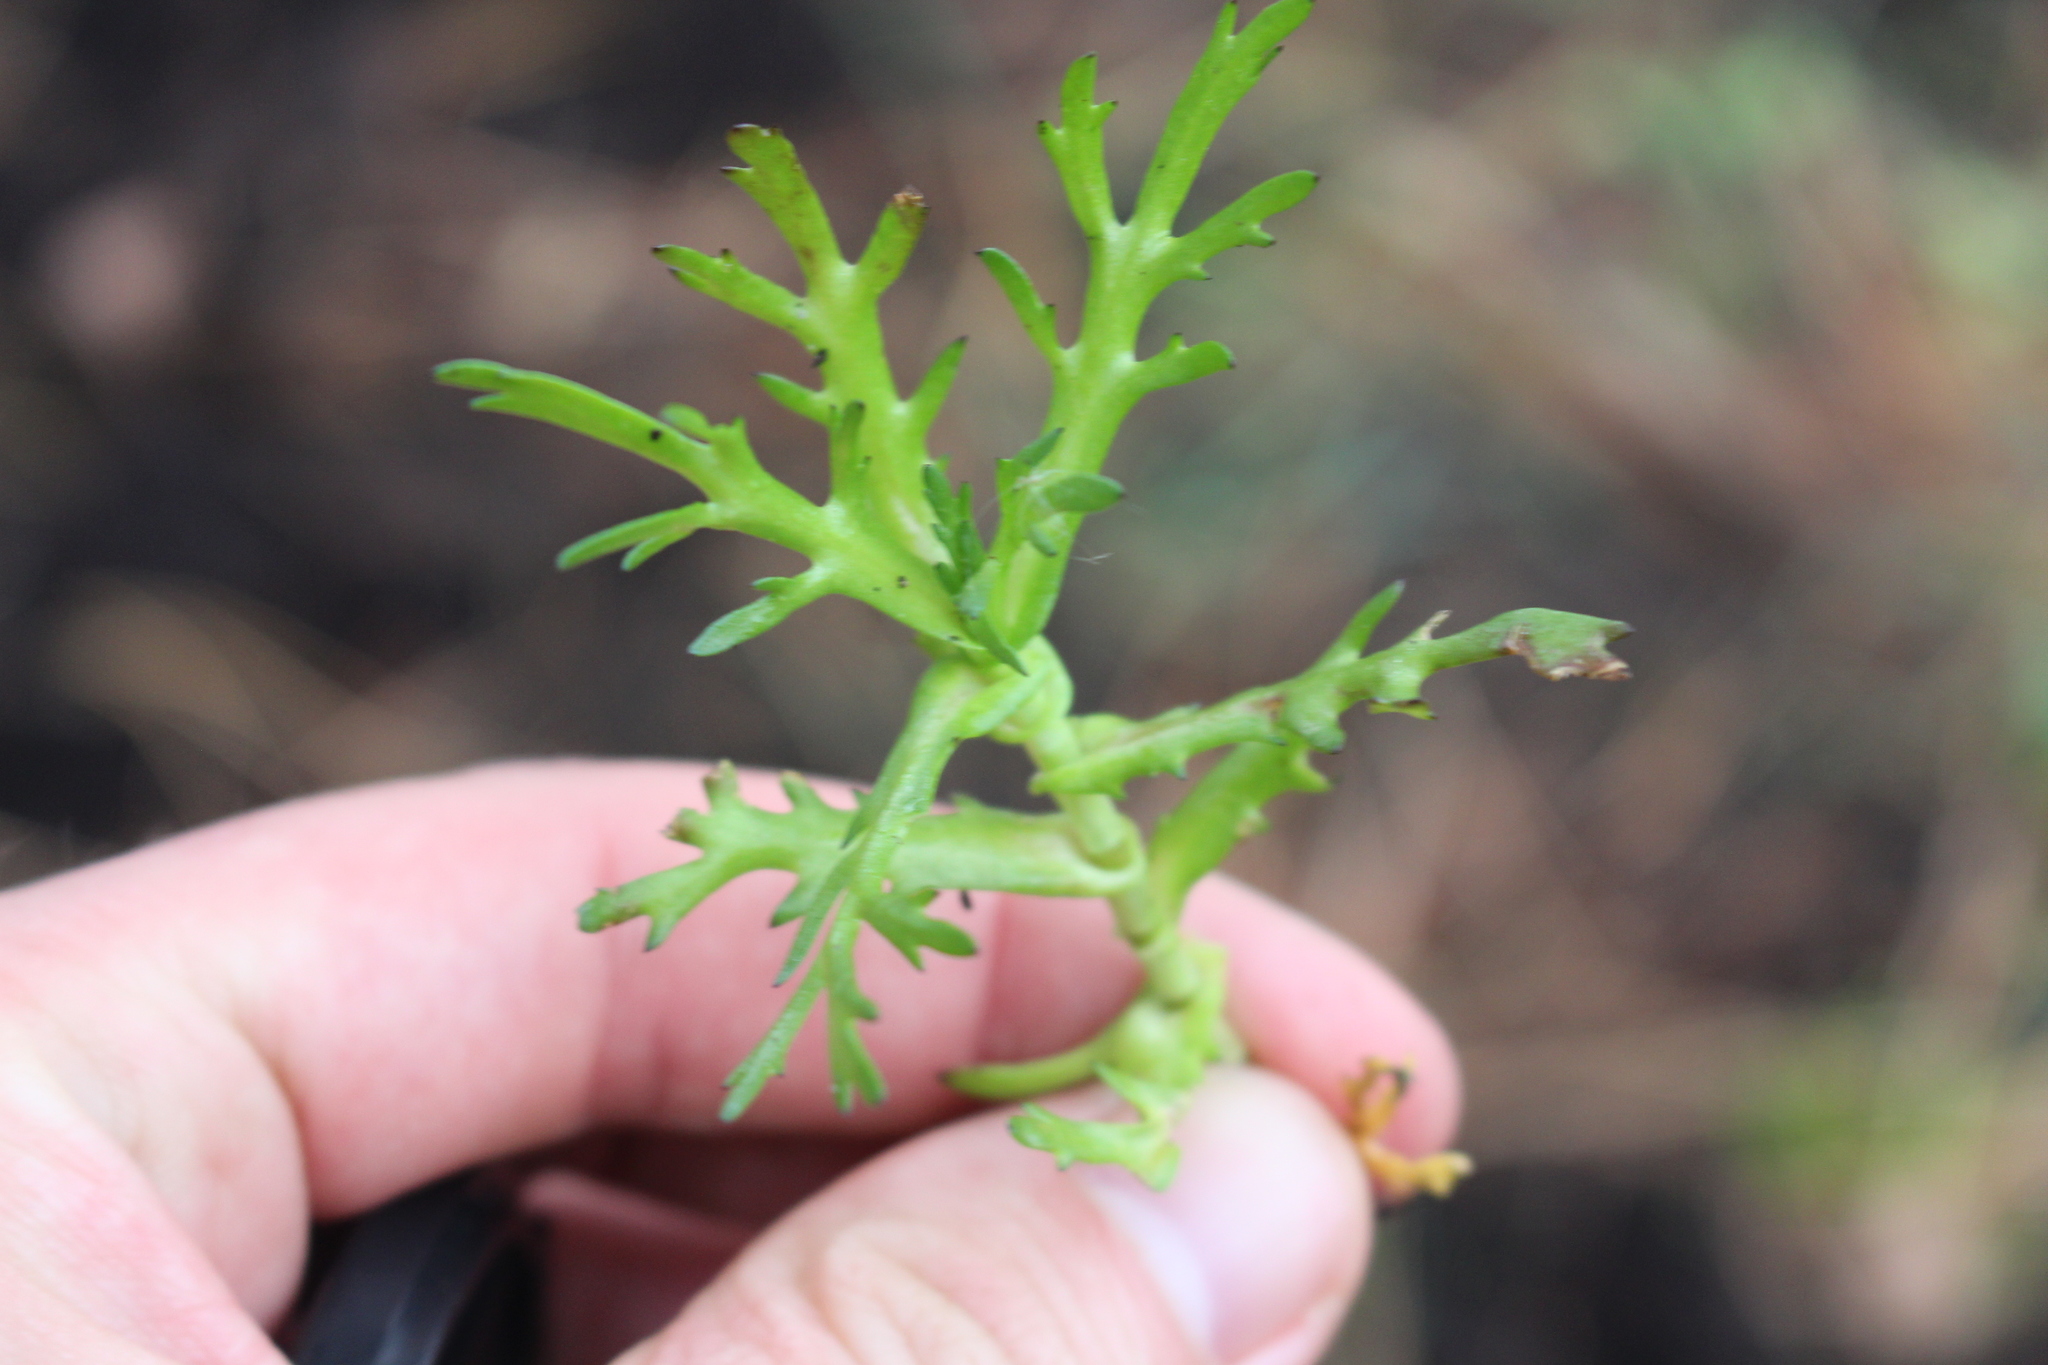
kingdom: Plantae
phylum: Tracheophyta
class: Magnoliopsida
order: Asterales
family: Asteraceae
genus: Cotula
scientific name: Cotula coronopifolia
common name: Buttonweed
